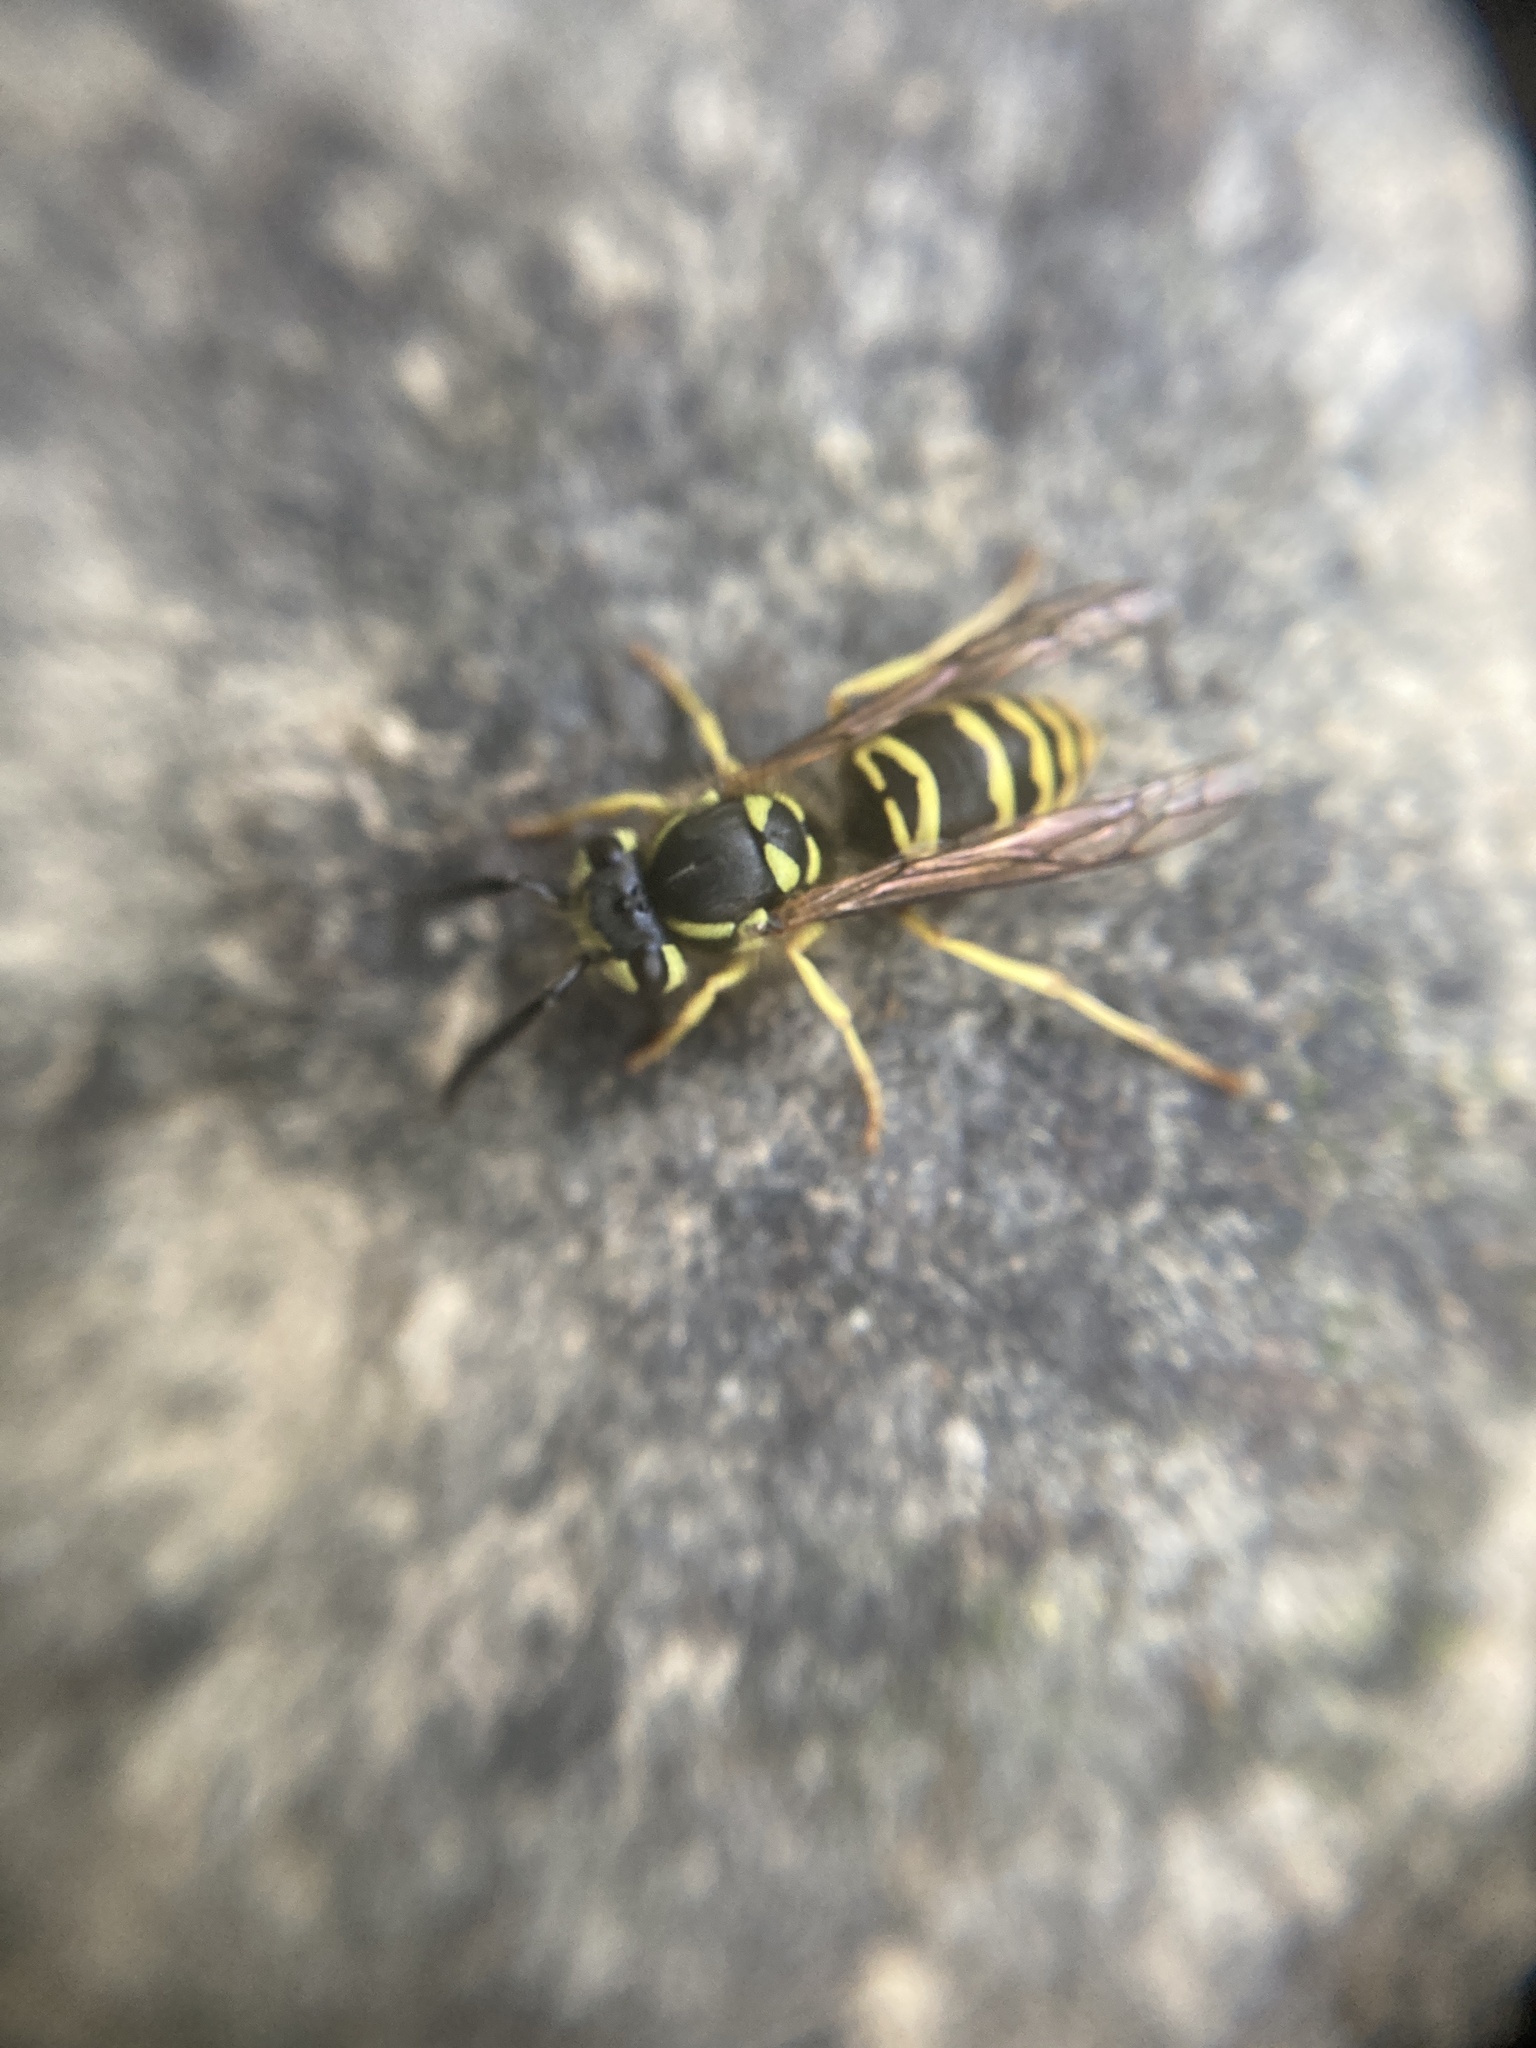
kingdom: Animalia
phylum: Arthropoda
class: Insecta
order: Hymenoptera
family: Vespidae
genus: Vespula
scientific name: Vespula maculifrons
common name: Eastern yellowjacket
